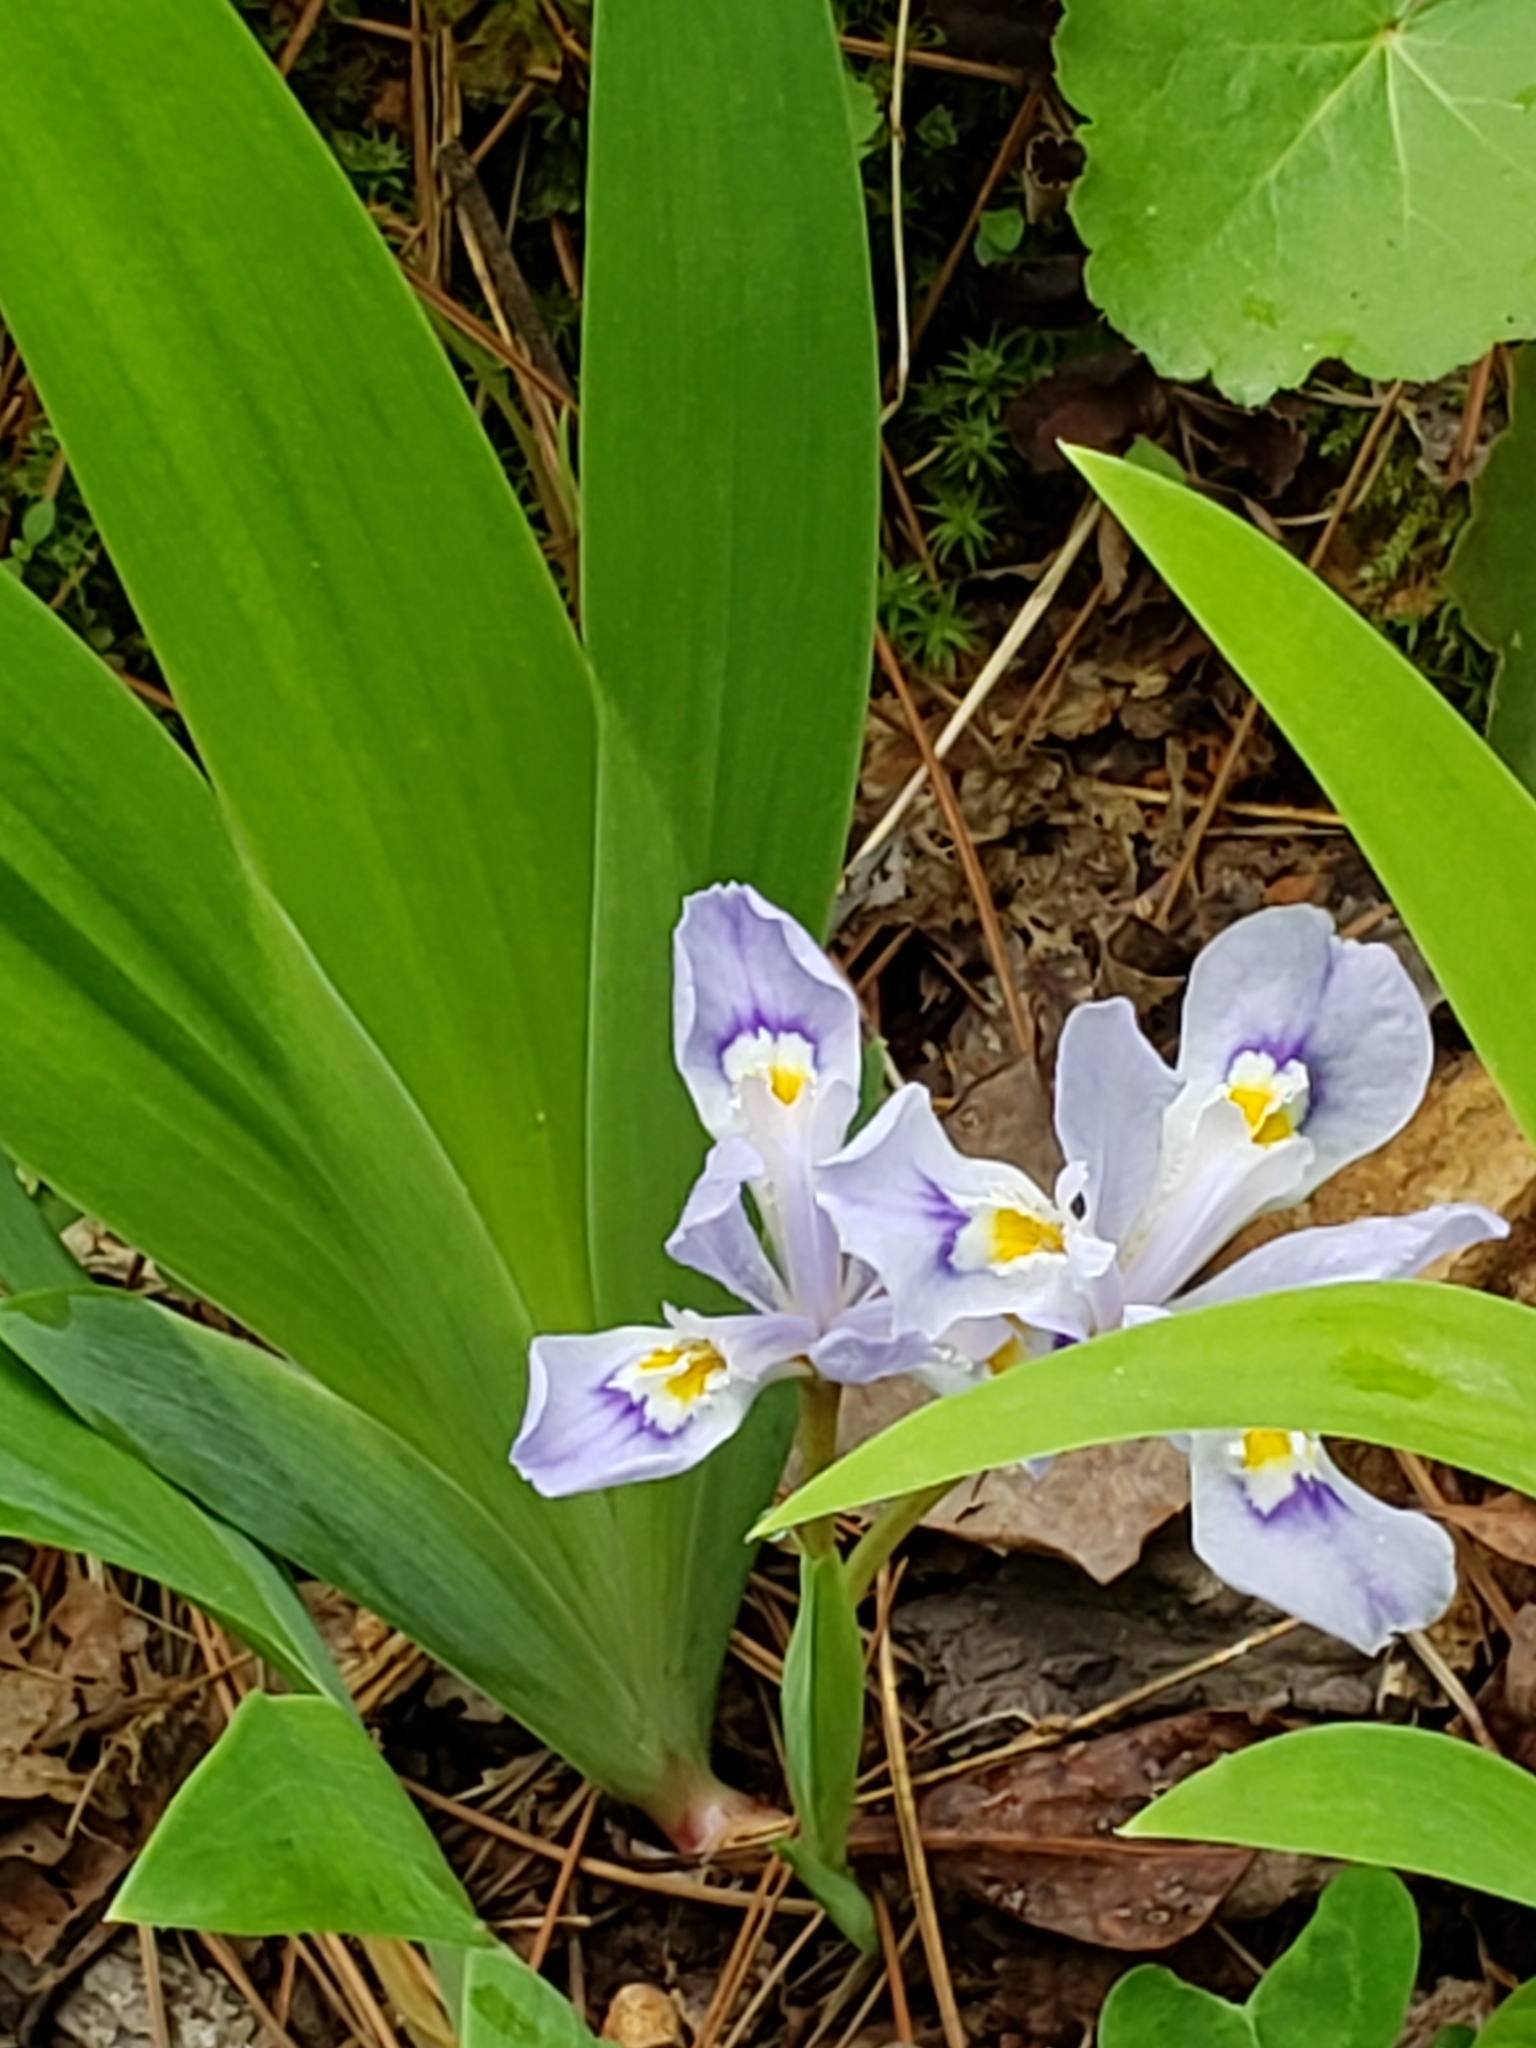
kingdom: Plantae
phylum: Tracheophyta
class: Liliopsida
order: Asparagales
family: Iridaceae
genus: Iris
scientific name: Iris cristata
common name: Crested iris
